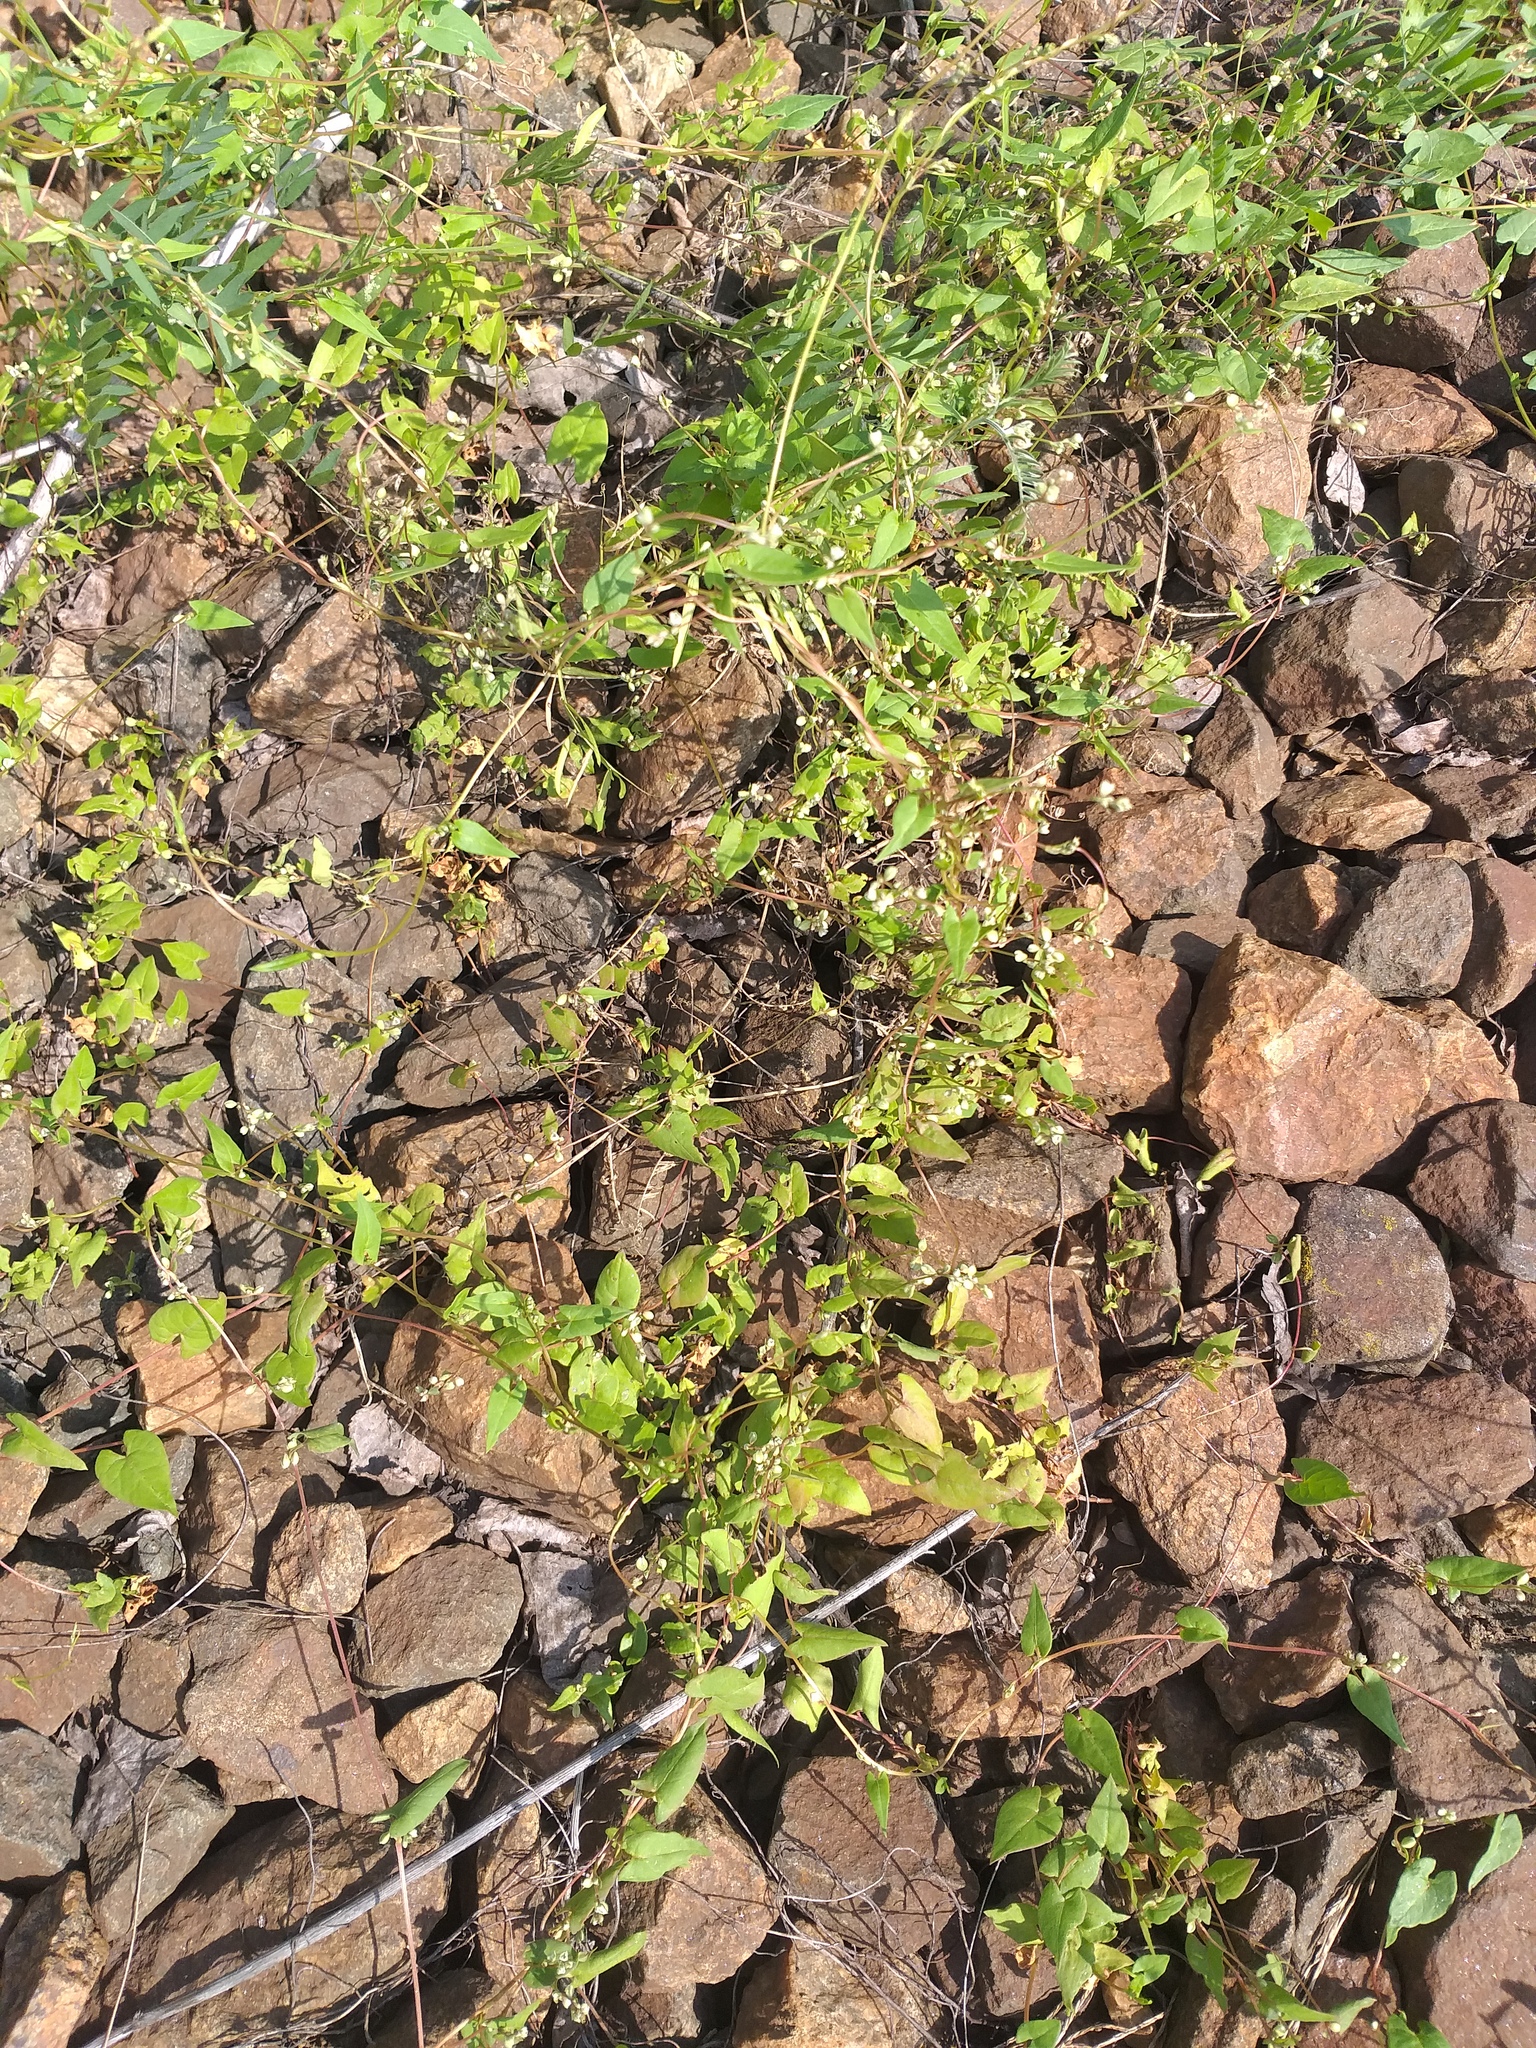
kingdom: Plantae
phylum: Tracheophyta
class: Magnoliopsida
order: Caryophyllales
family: Polygonaceae
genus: Fallopia
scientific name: Fallopia convolvulus
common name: Black bindweed
